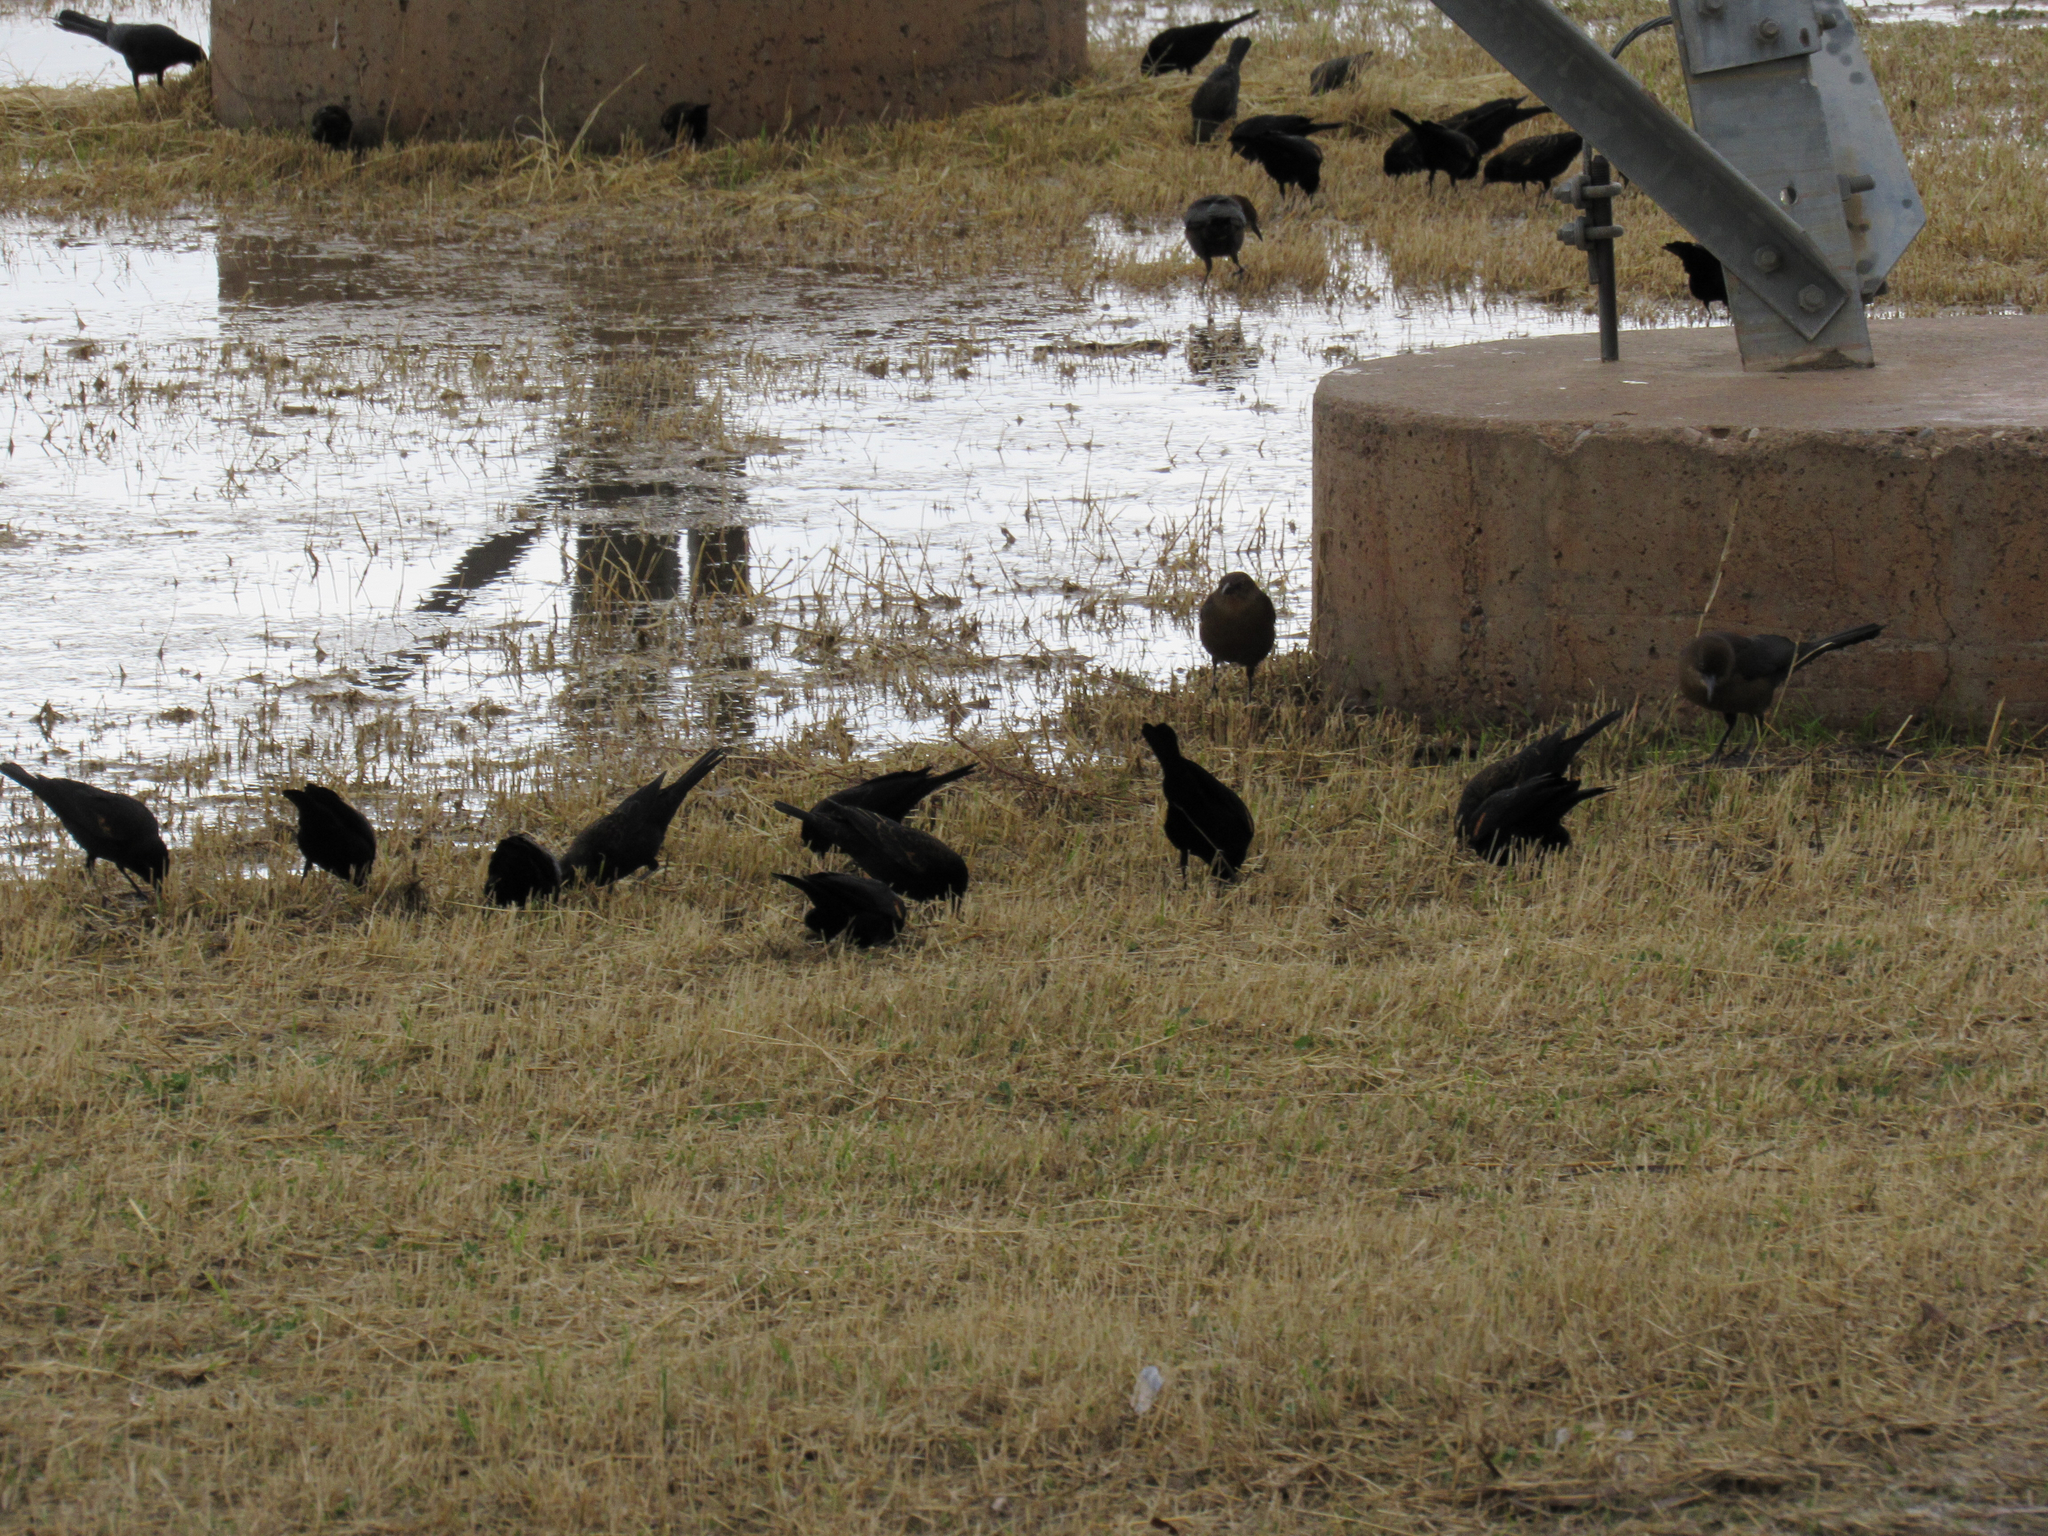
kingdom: Animalia
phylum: Chordata
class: Aves
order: Passeriformes
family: Icteridae
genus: Agelaius
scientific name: Agelaius phoeniceus
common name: Red-winged blackbird
